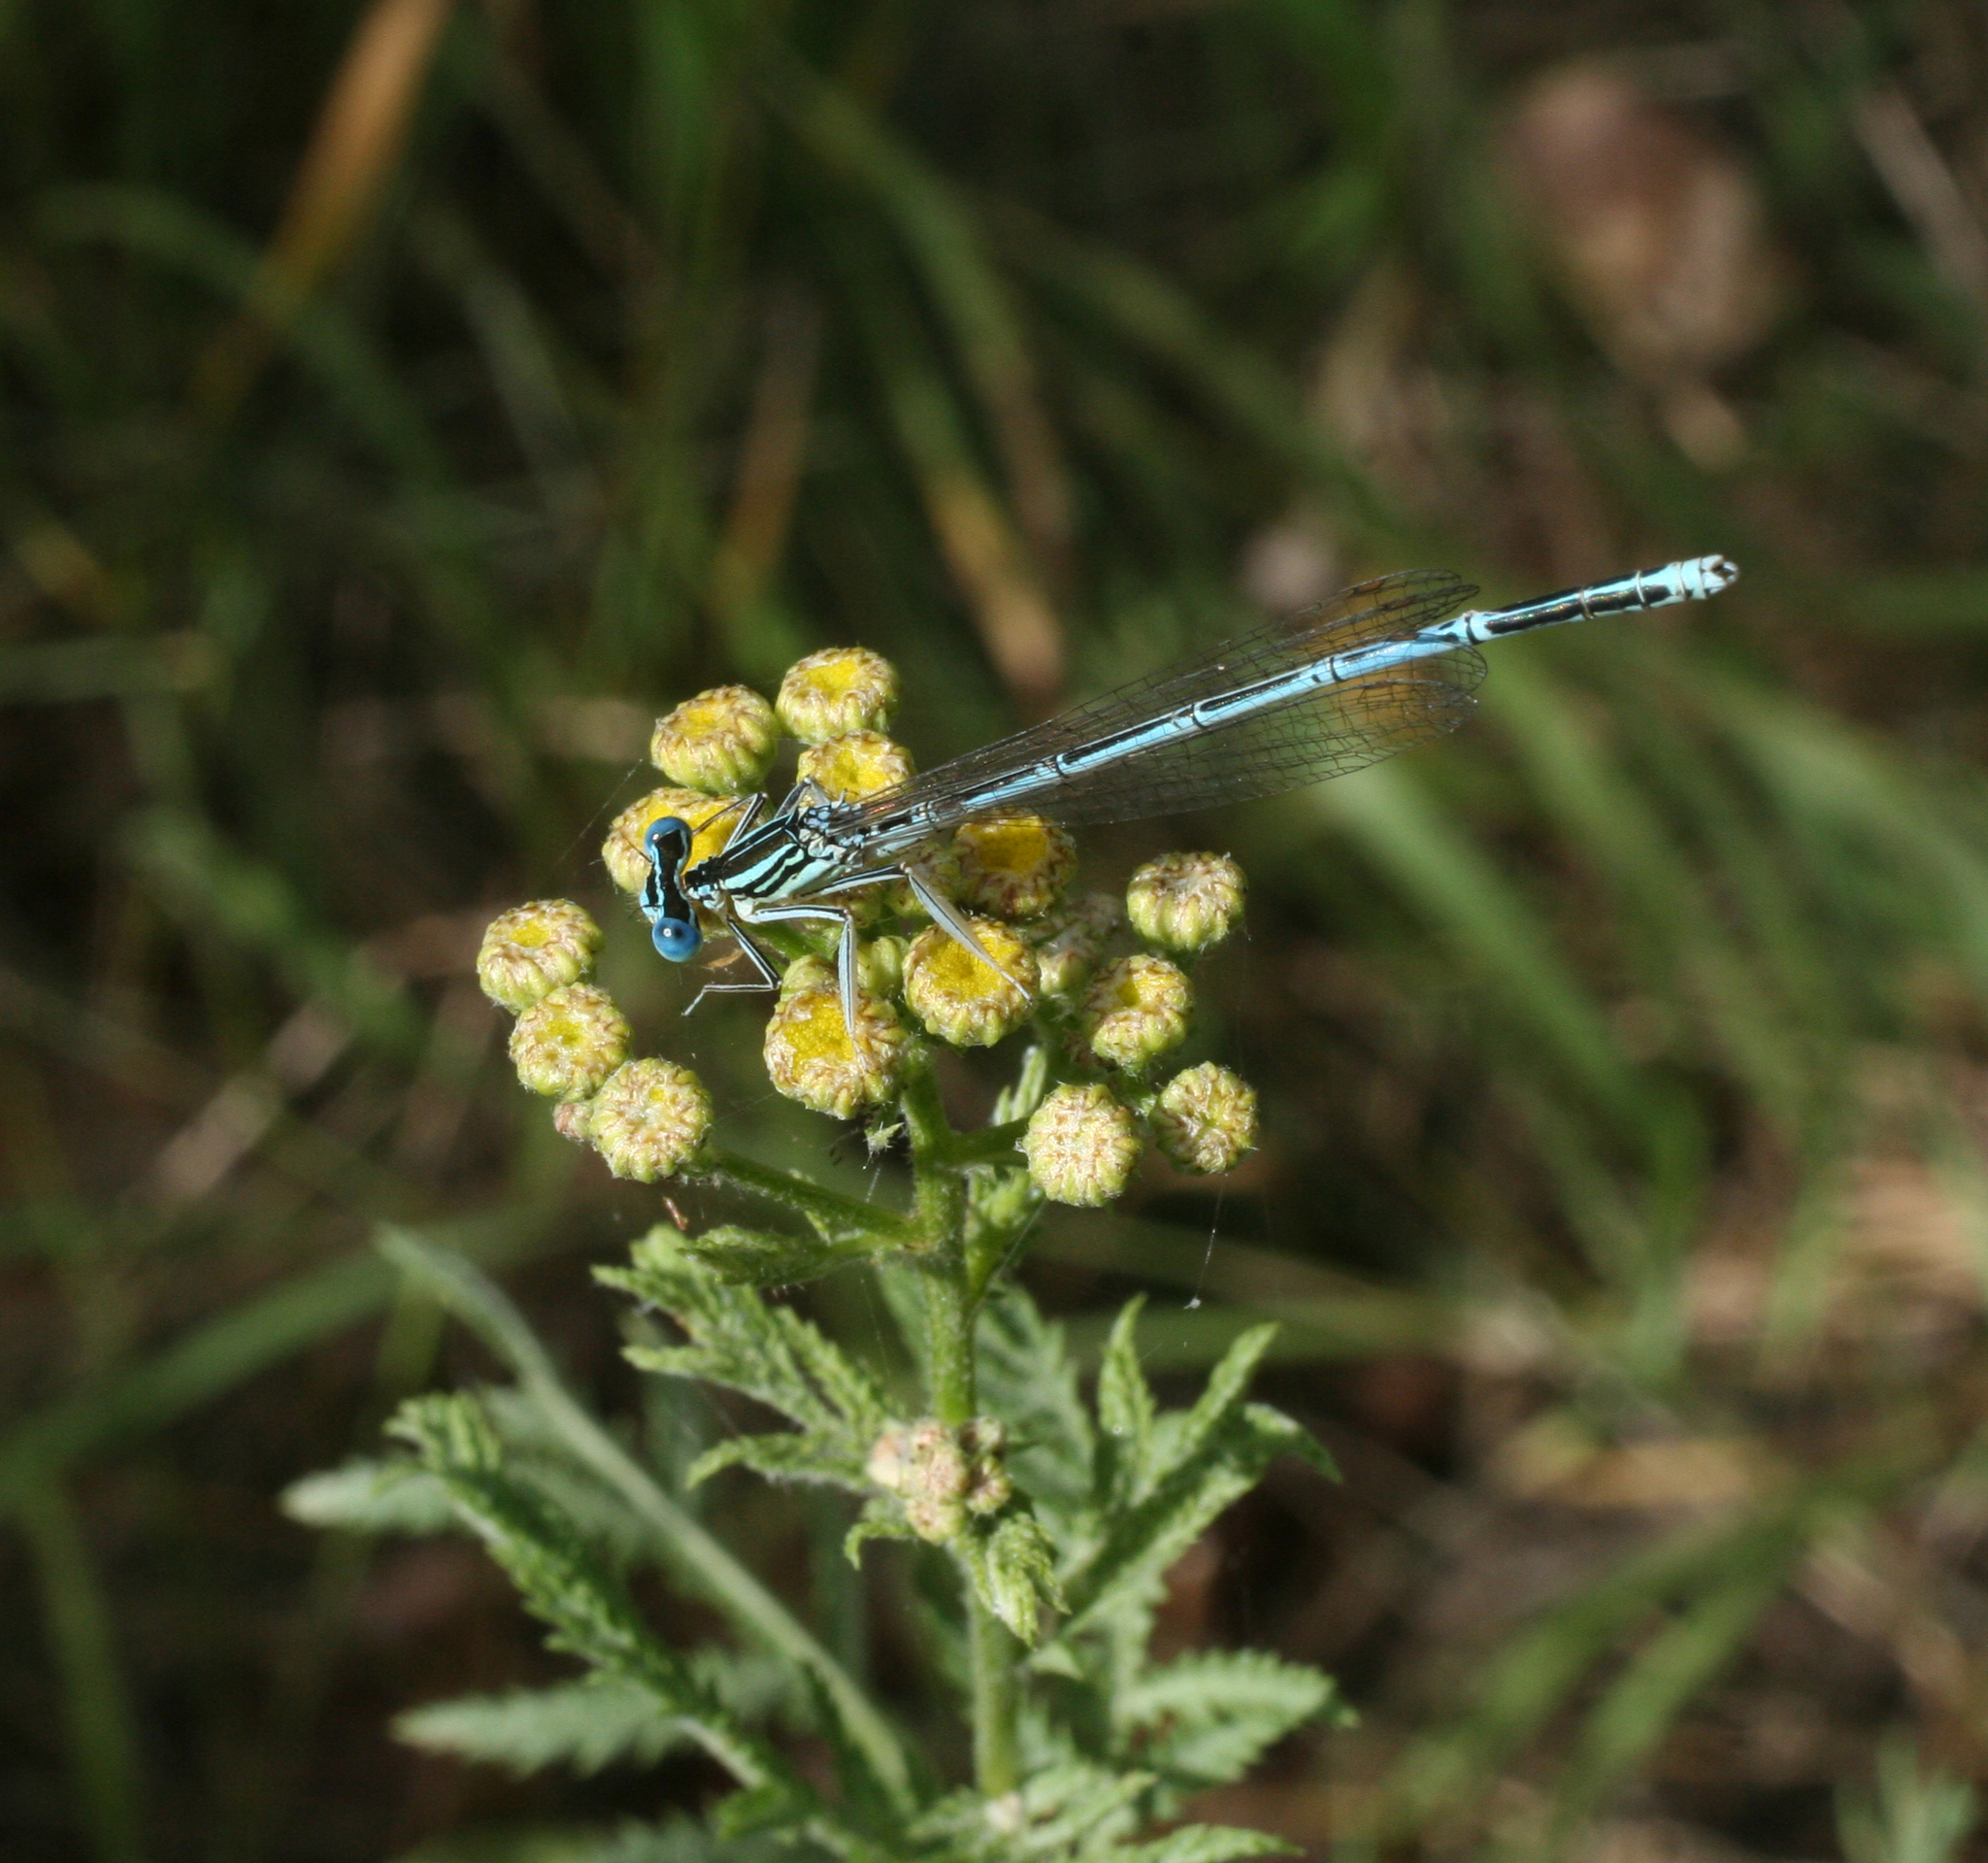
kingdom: Animalia
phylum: Arthropoda
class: Insecta
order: Odonata
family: Platycnemididae
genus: Platycnemis
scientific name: Platycnemis pennipes
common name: White-legged damselfly
